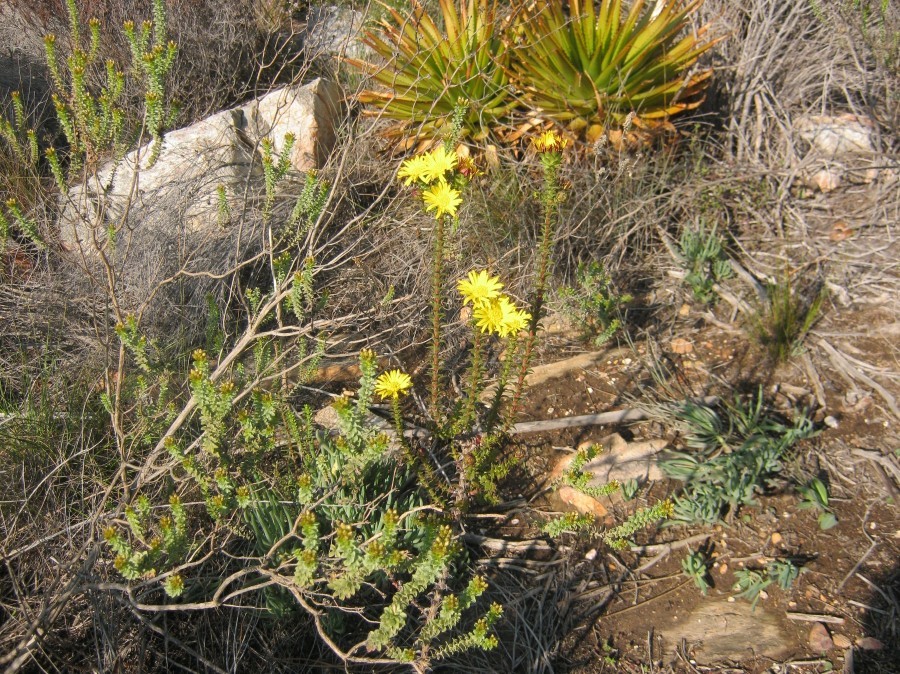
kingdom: Plantae
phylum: Tracheophyta
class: Magnoliopsida
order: Asterales
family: Asteraceae
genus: Oedera
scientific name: Oedera imbricata
